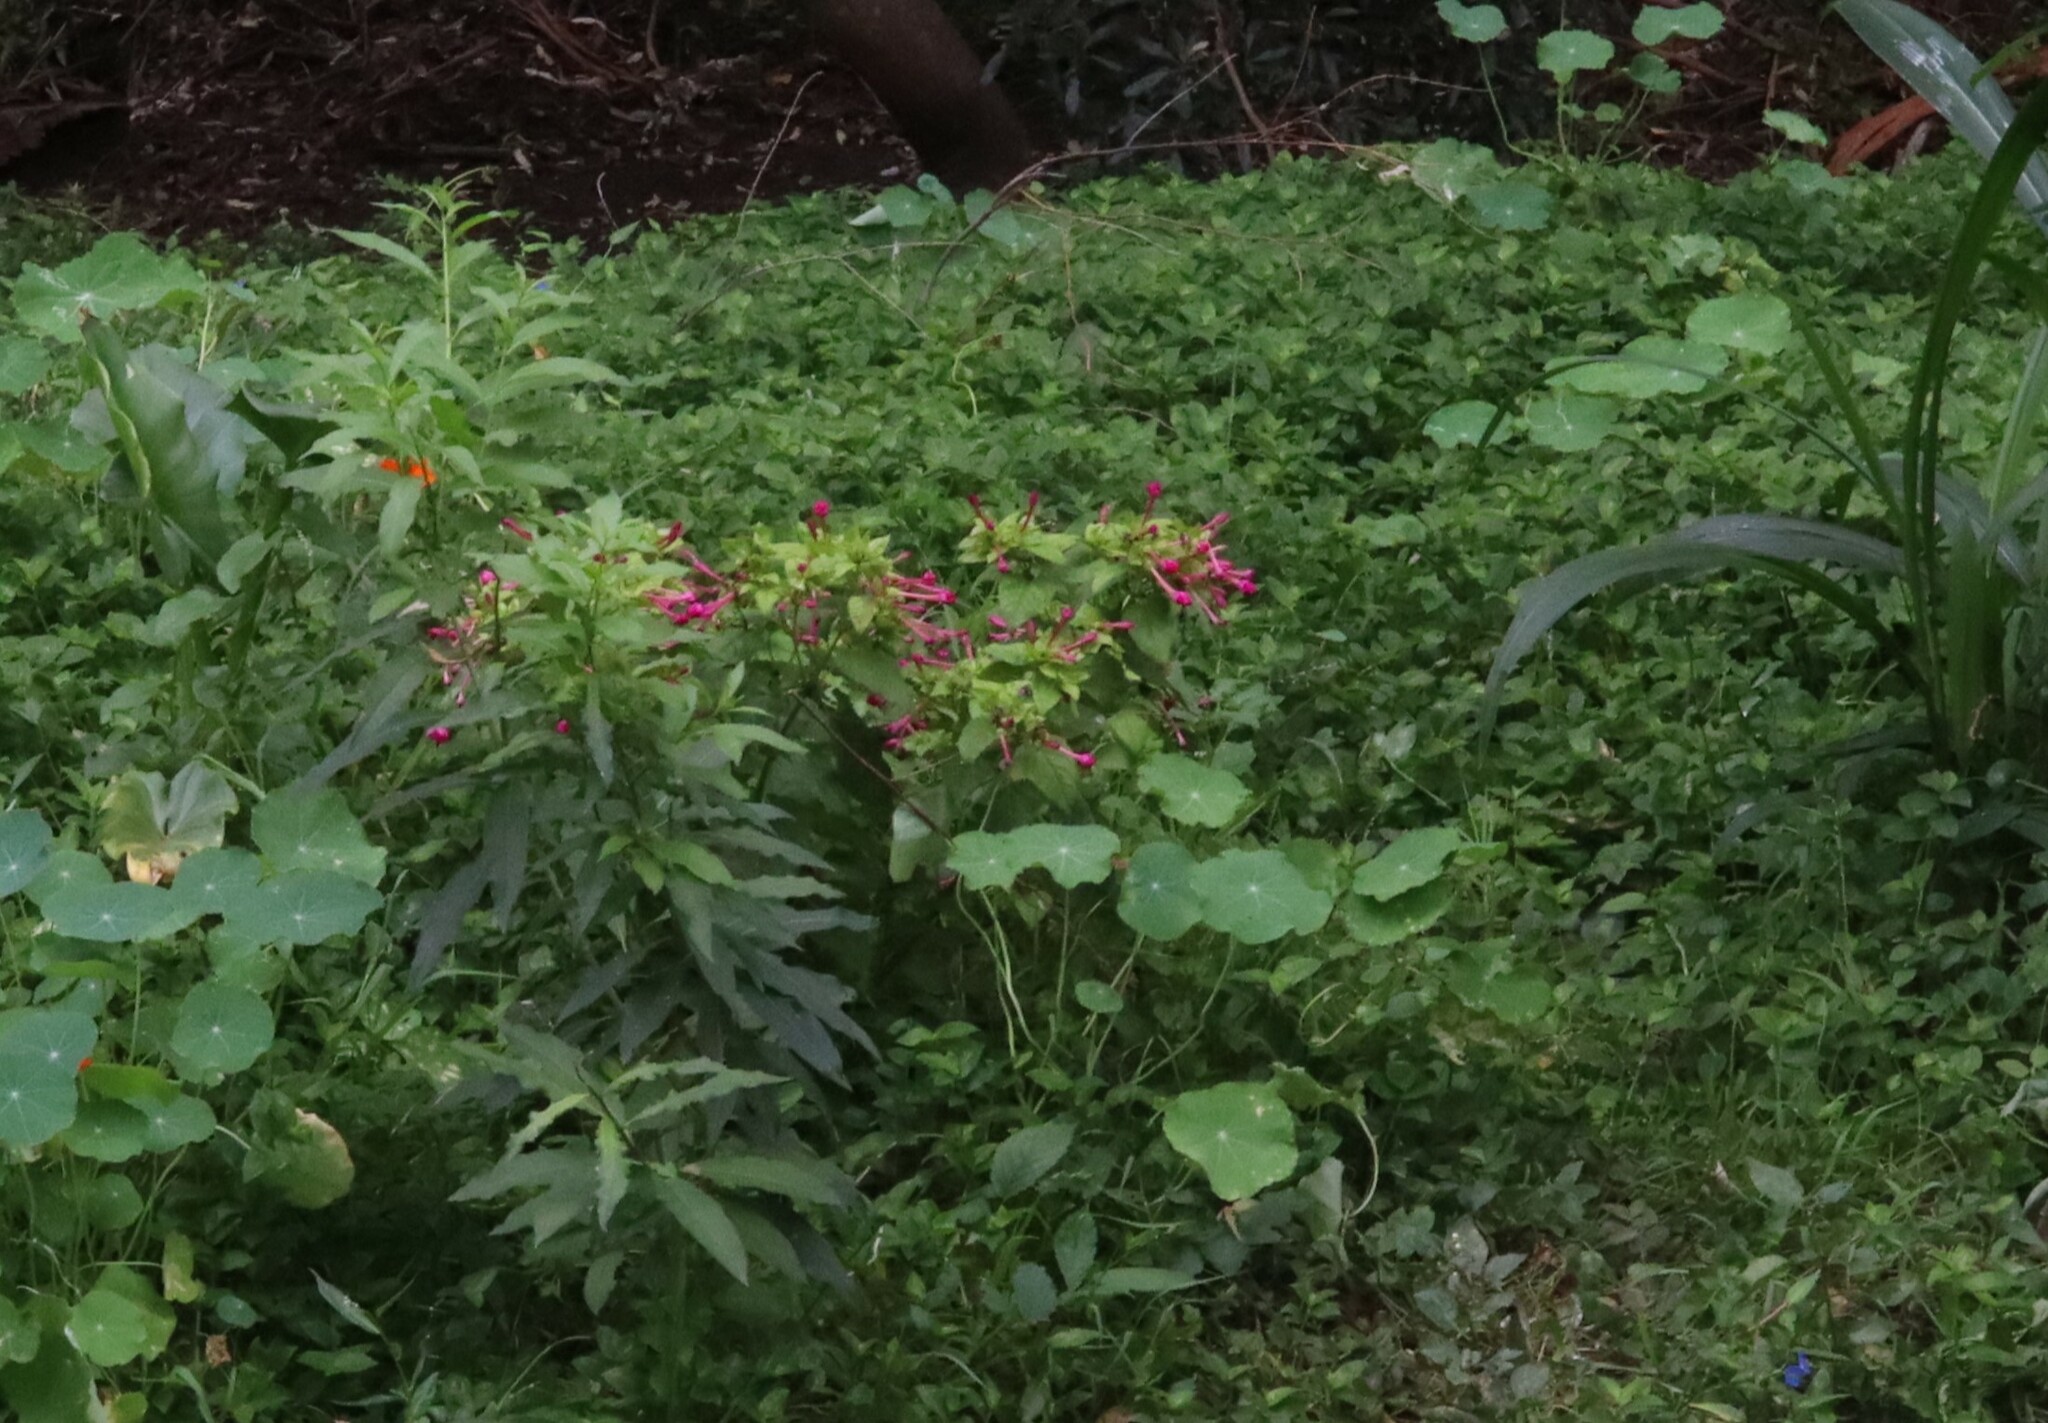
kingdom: Plantae
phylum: Tracheophyta
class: Magnoliopsida
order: Caryophyllales
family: Nyctaginaceae
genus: Mirabilis
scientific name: Mirabilis jalapa
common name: Marvel-of-peru
